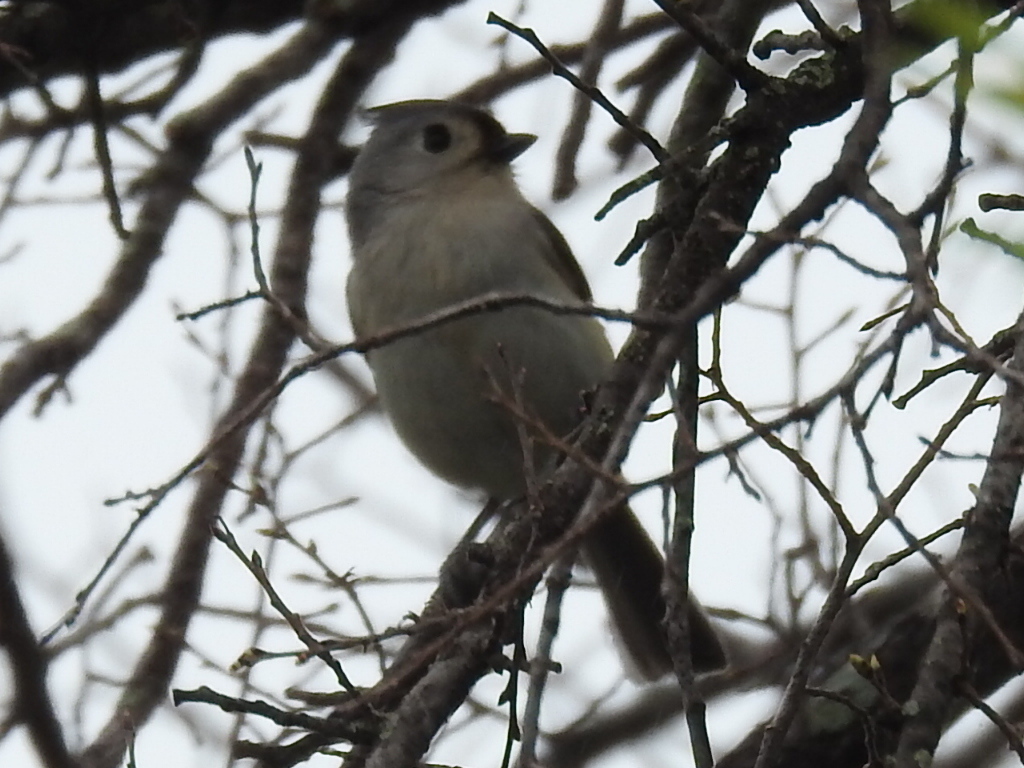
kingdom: Animalia
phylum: Chordata
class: Aves
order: Passeriformes
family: Paridae
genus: Baeolophus
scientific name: Baeolophus bicolor
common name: Tufted titmouse
